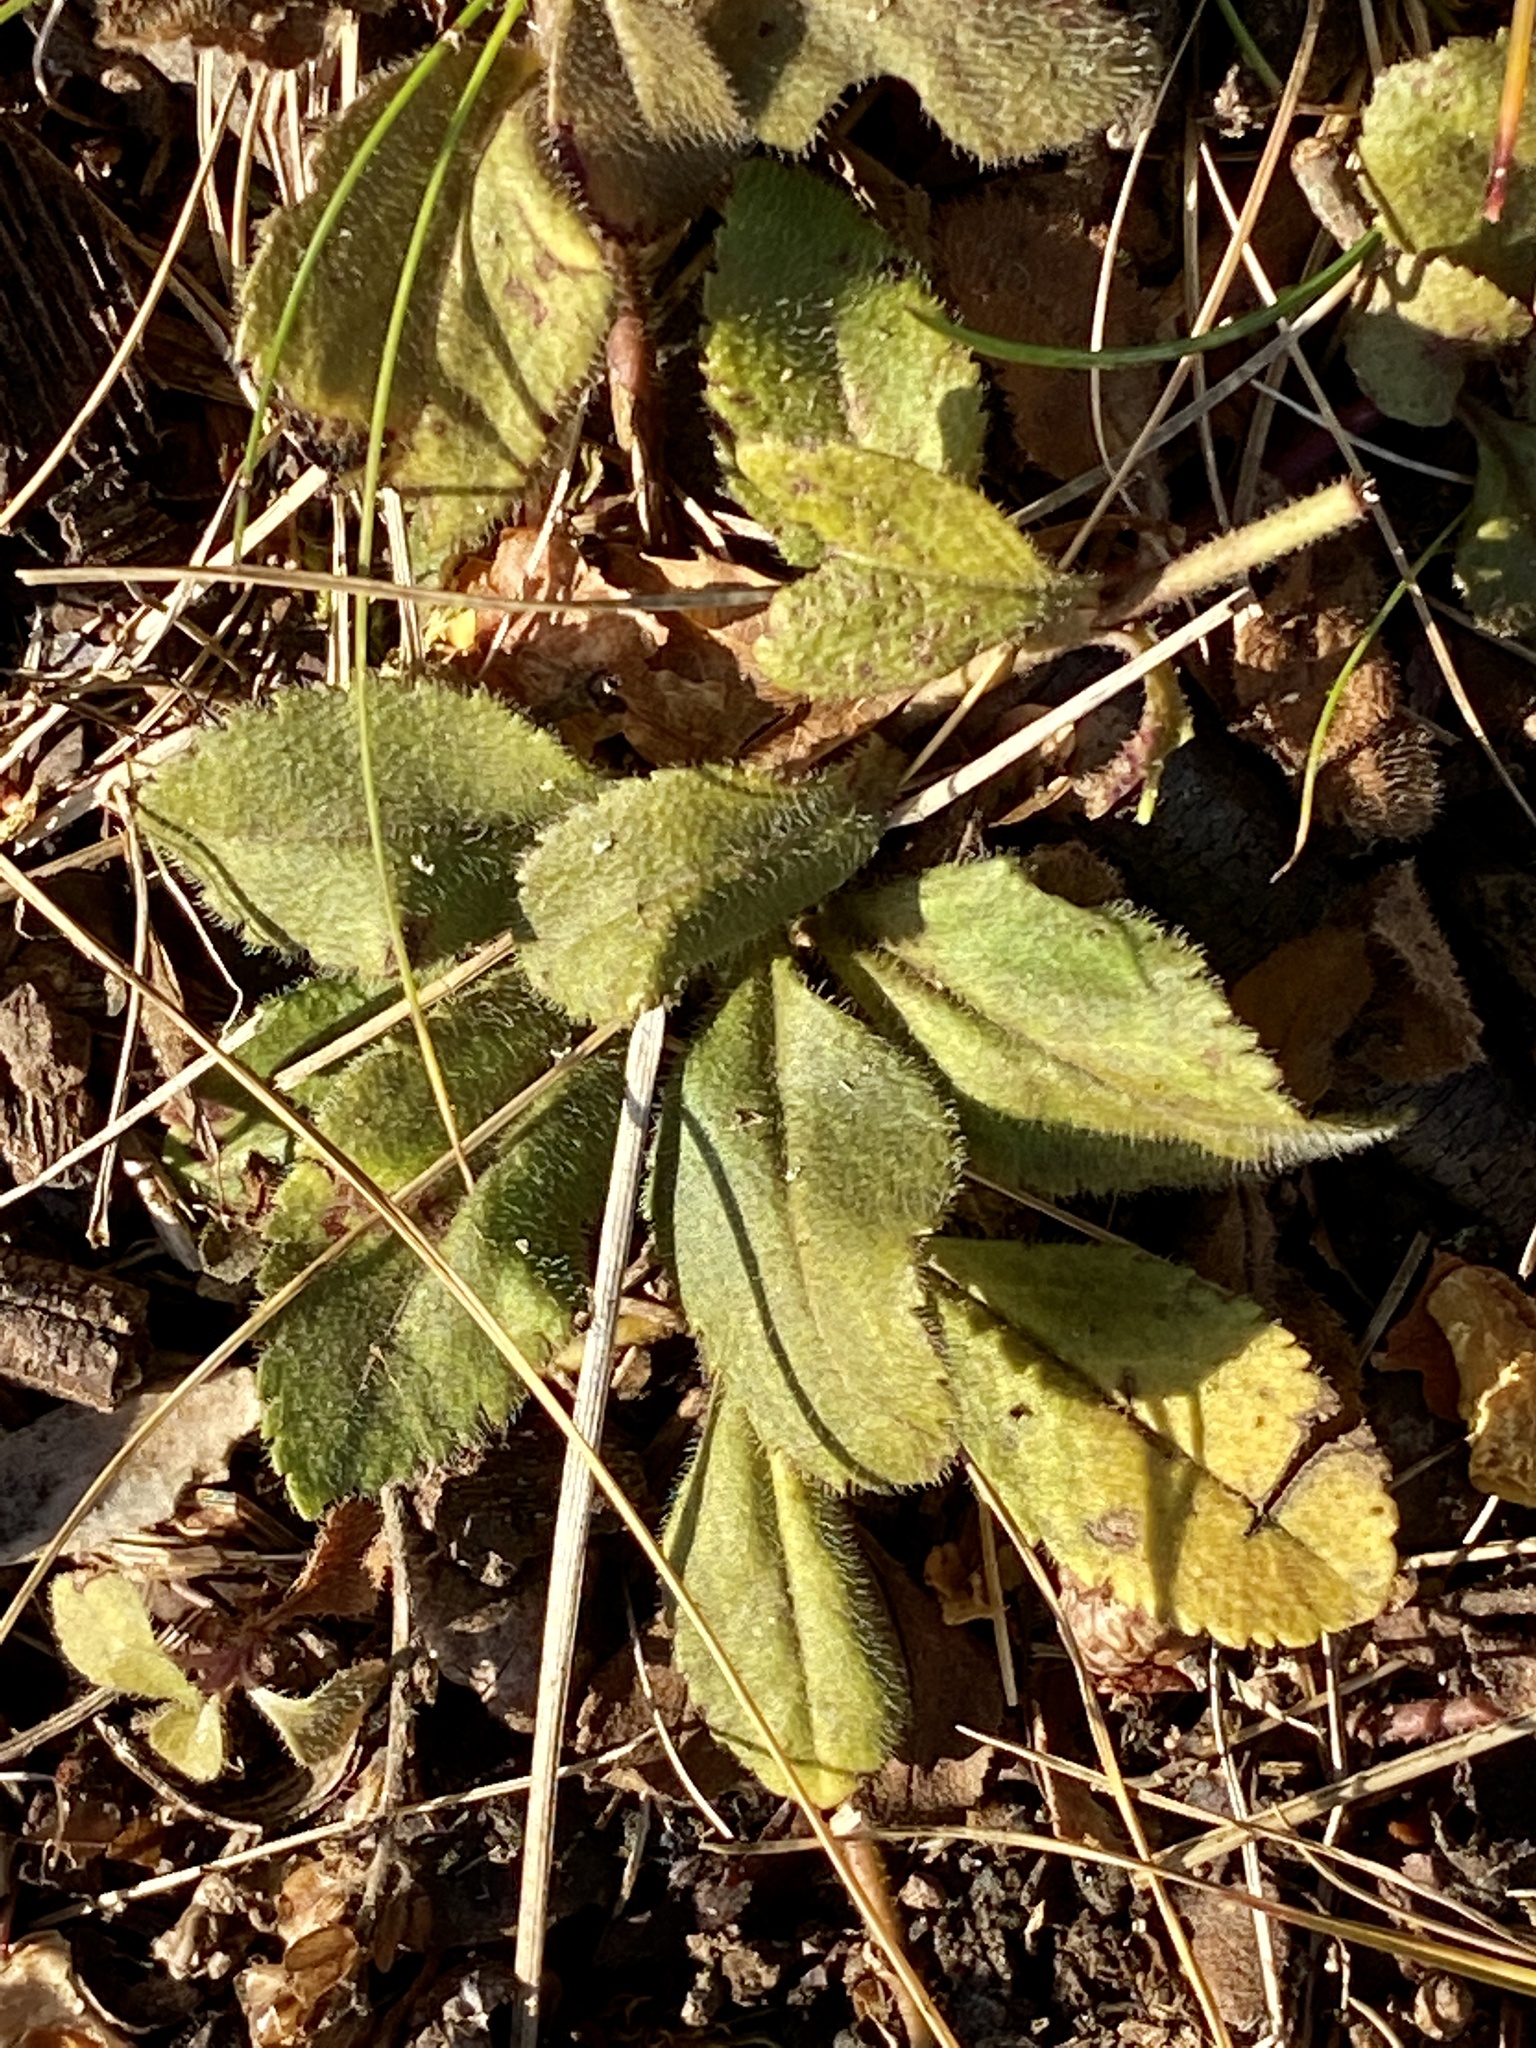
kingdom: Plantae
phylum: Tracheophyta
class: Magnoliopsida
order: Lamiales
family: Plantaginaceae
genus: Veronica
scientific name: Veronica officinalis
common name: Common speedwell
